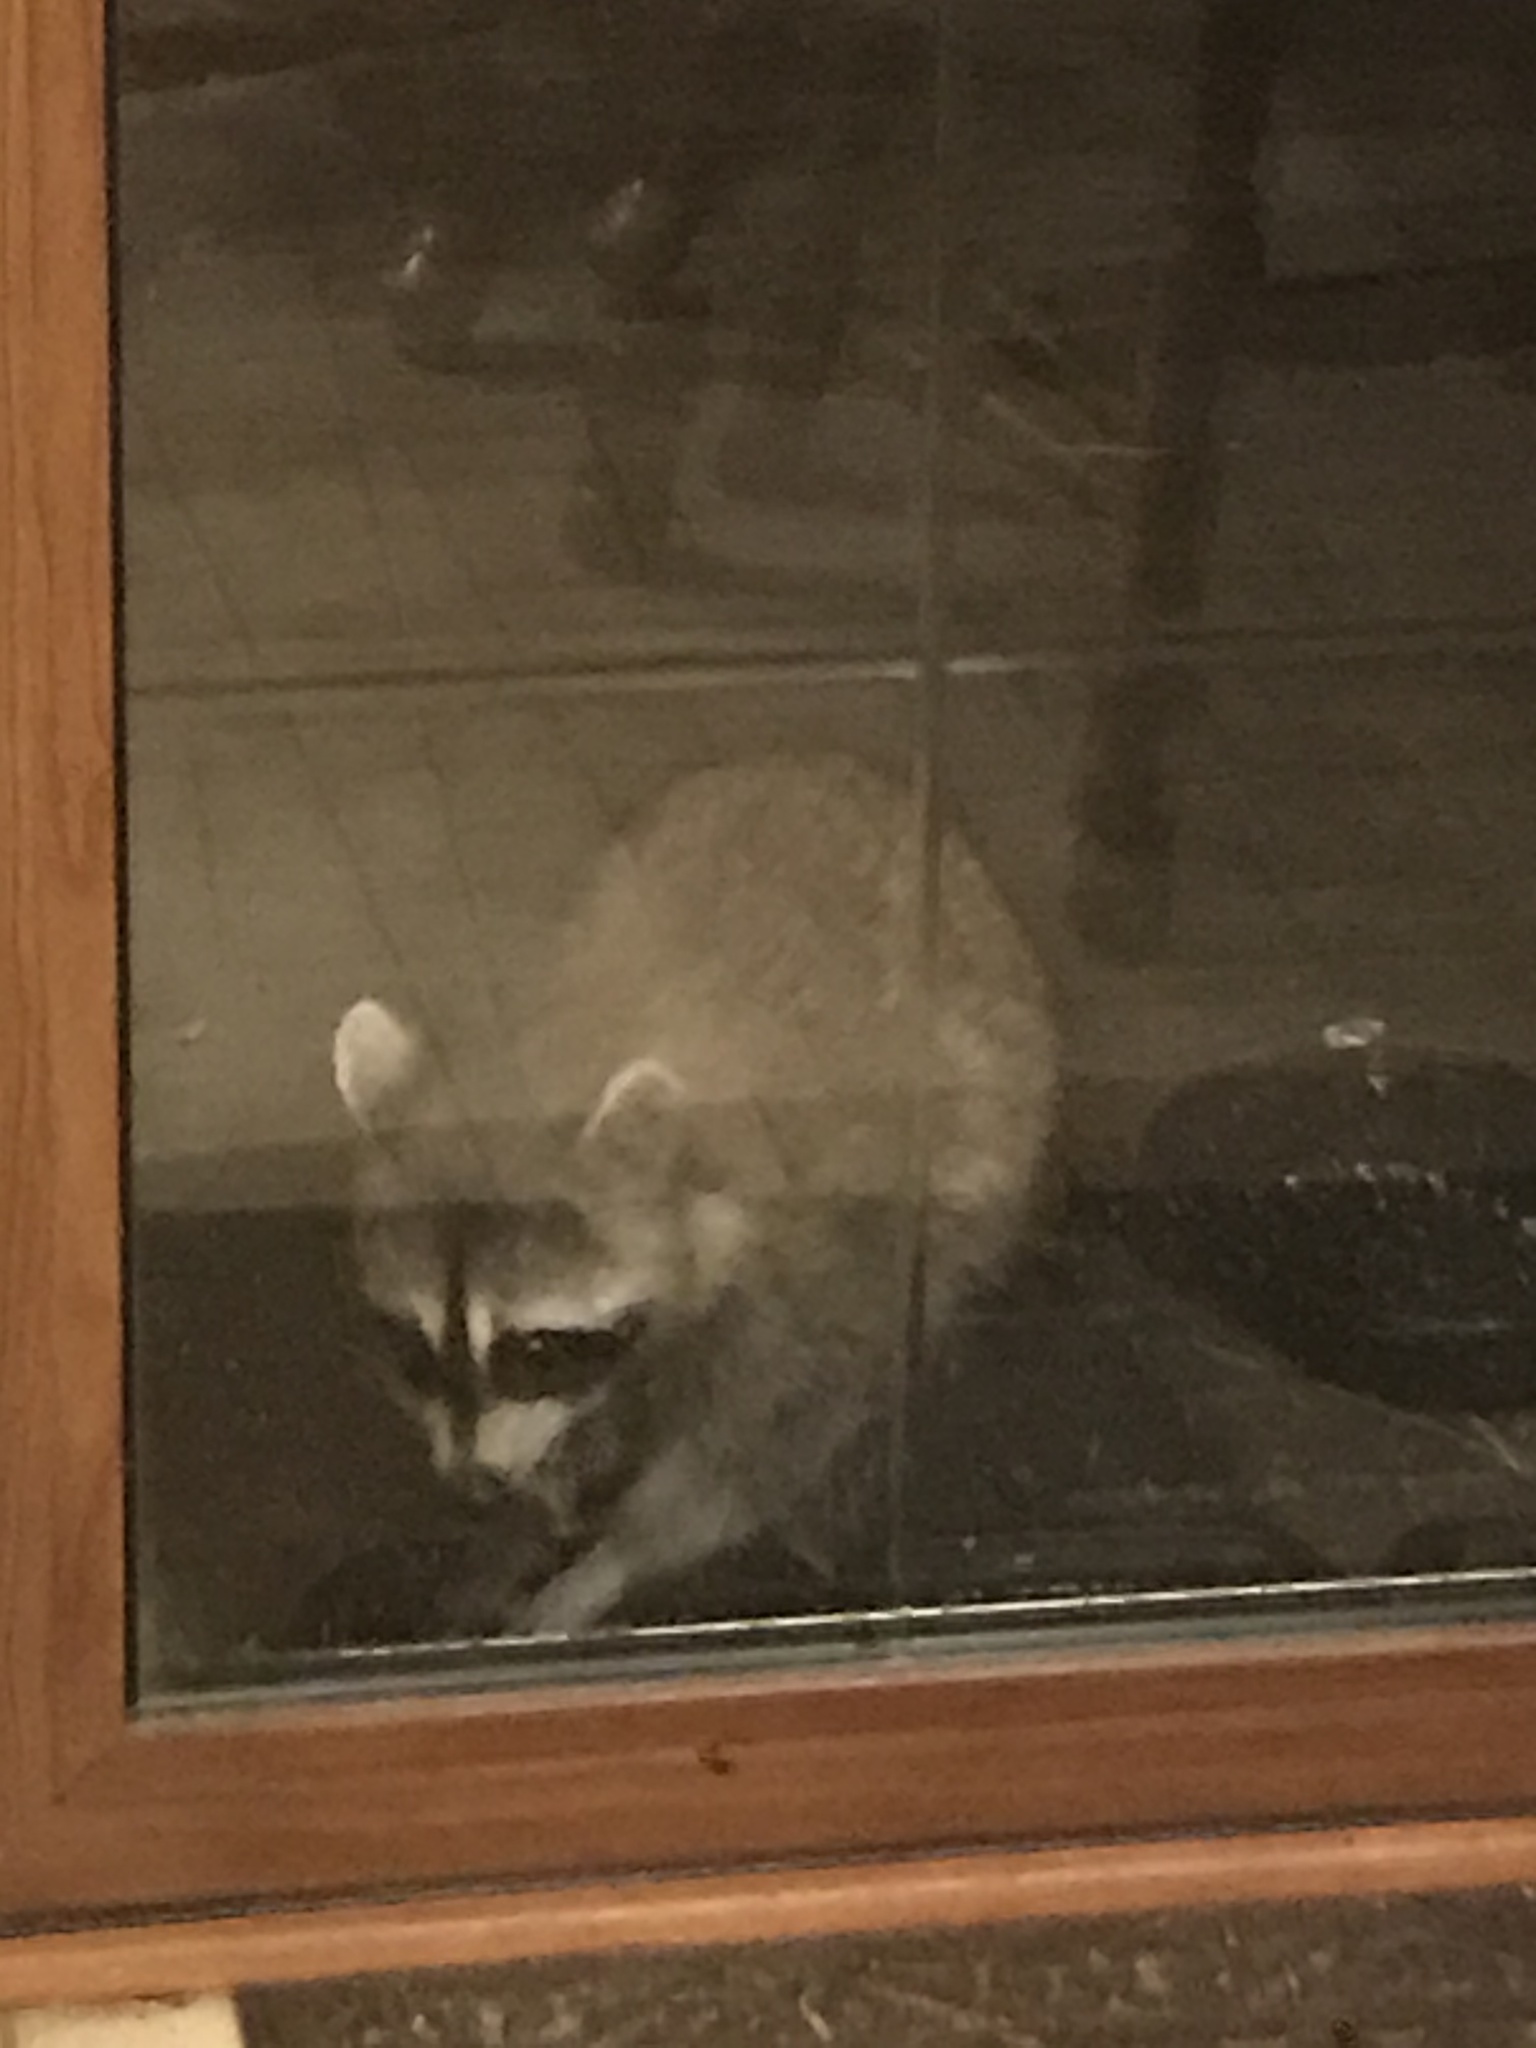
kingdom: Animalia
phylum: Chordata
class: Mammalia
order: Carnivora
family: Procyonidae
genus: Procyon
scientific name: Procyon lotor
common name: Raccoon
